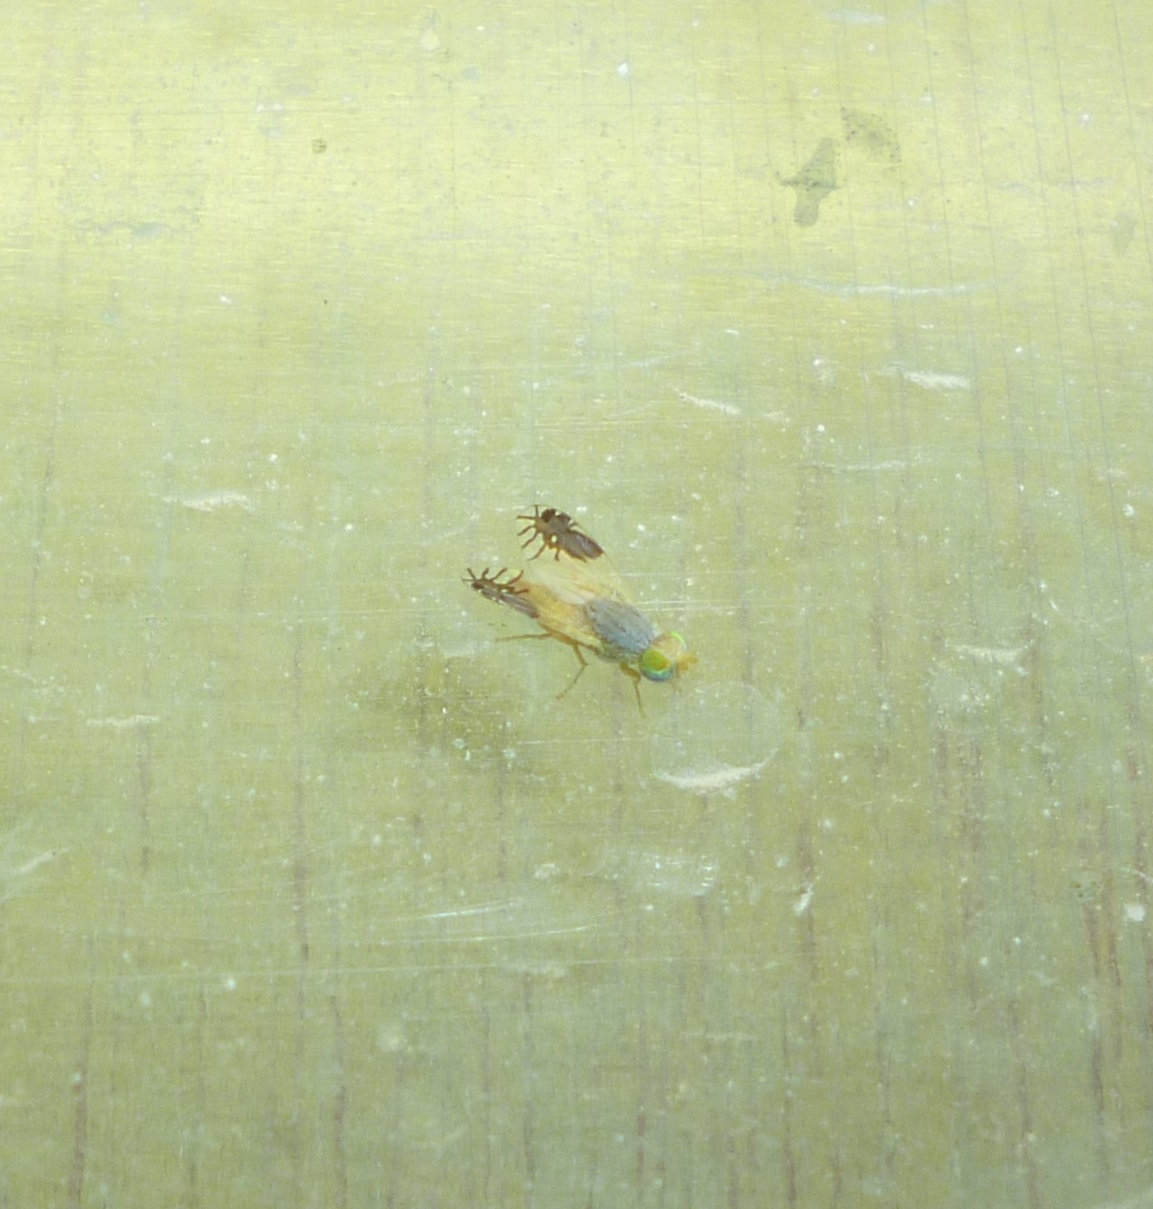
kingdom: Animalia
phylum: Arthropoda
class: Insecta
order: Diptera
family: Tephritidae
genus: Goniurellia
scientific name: Goniurellia longicauda
